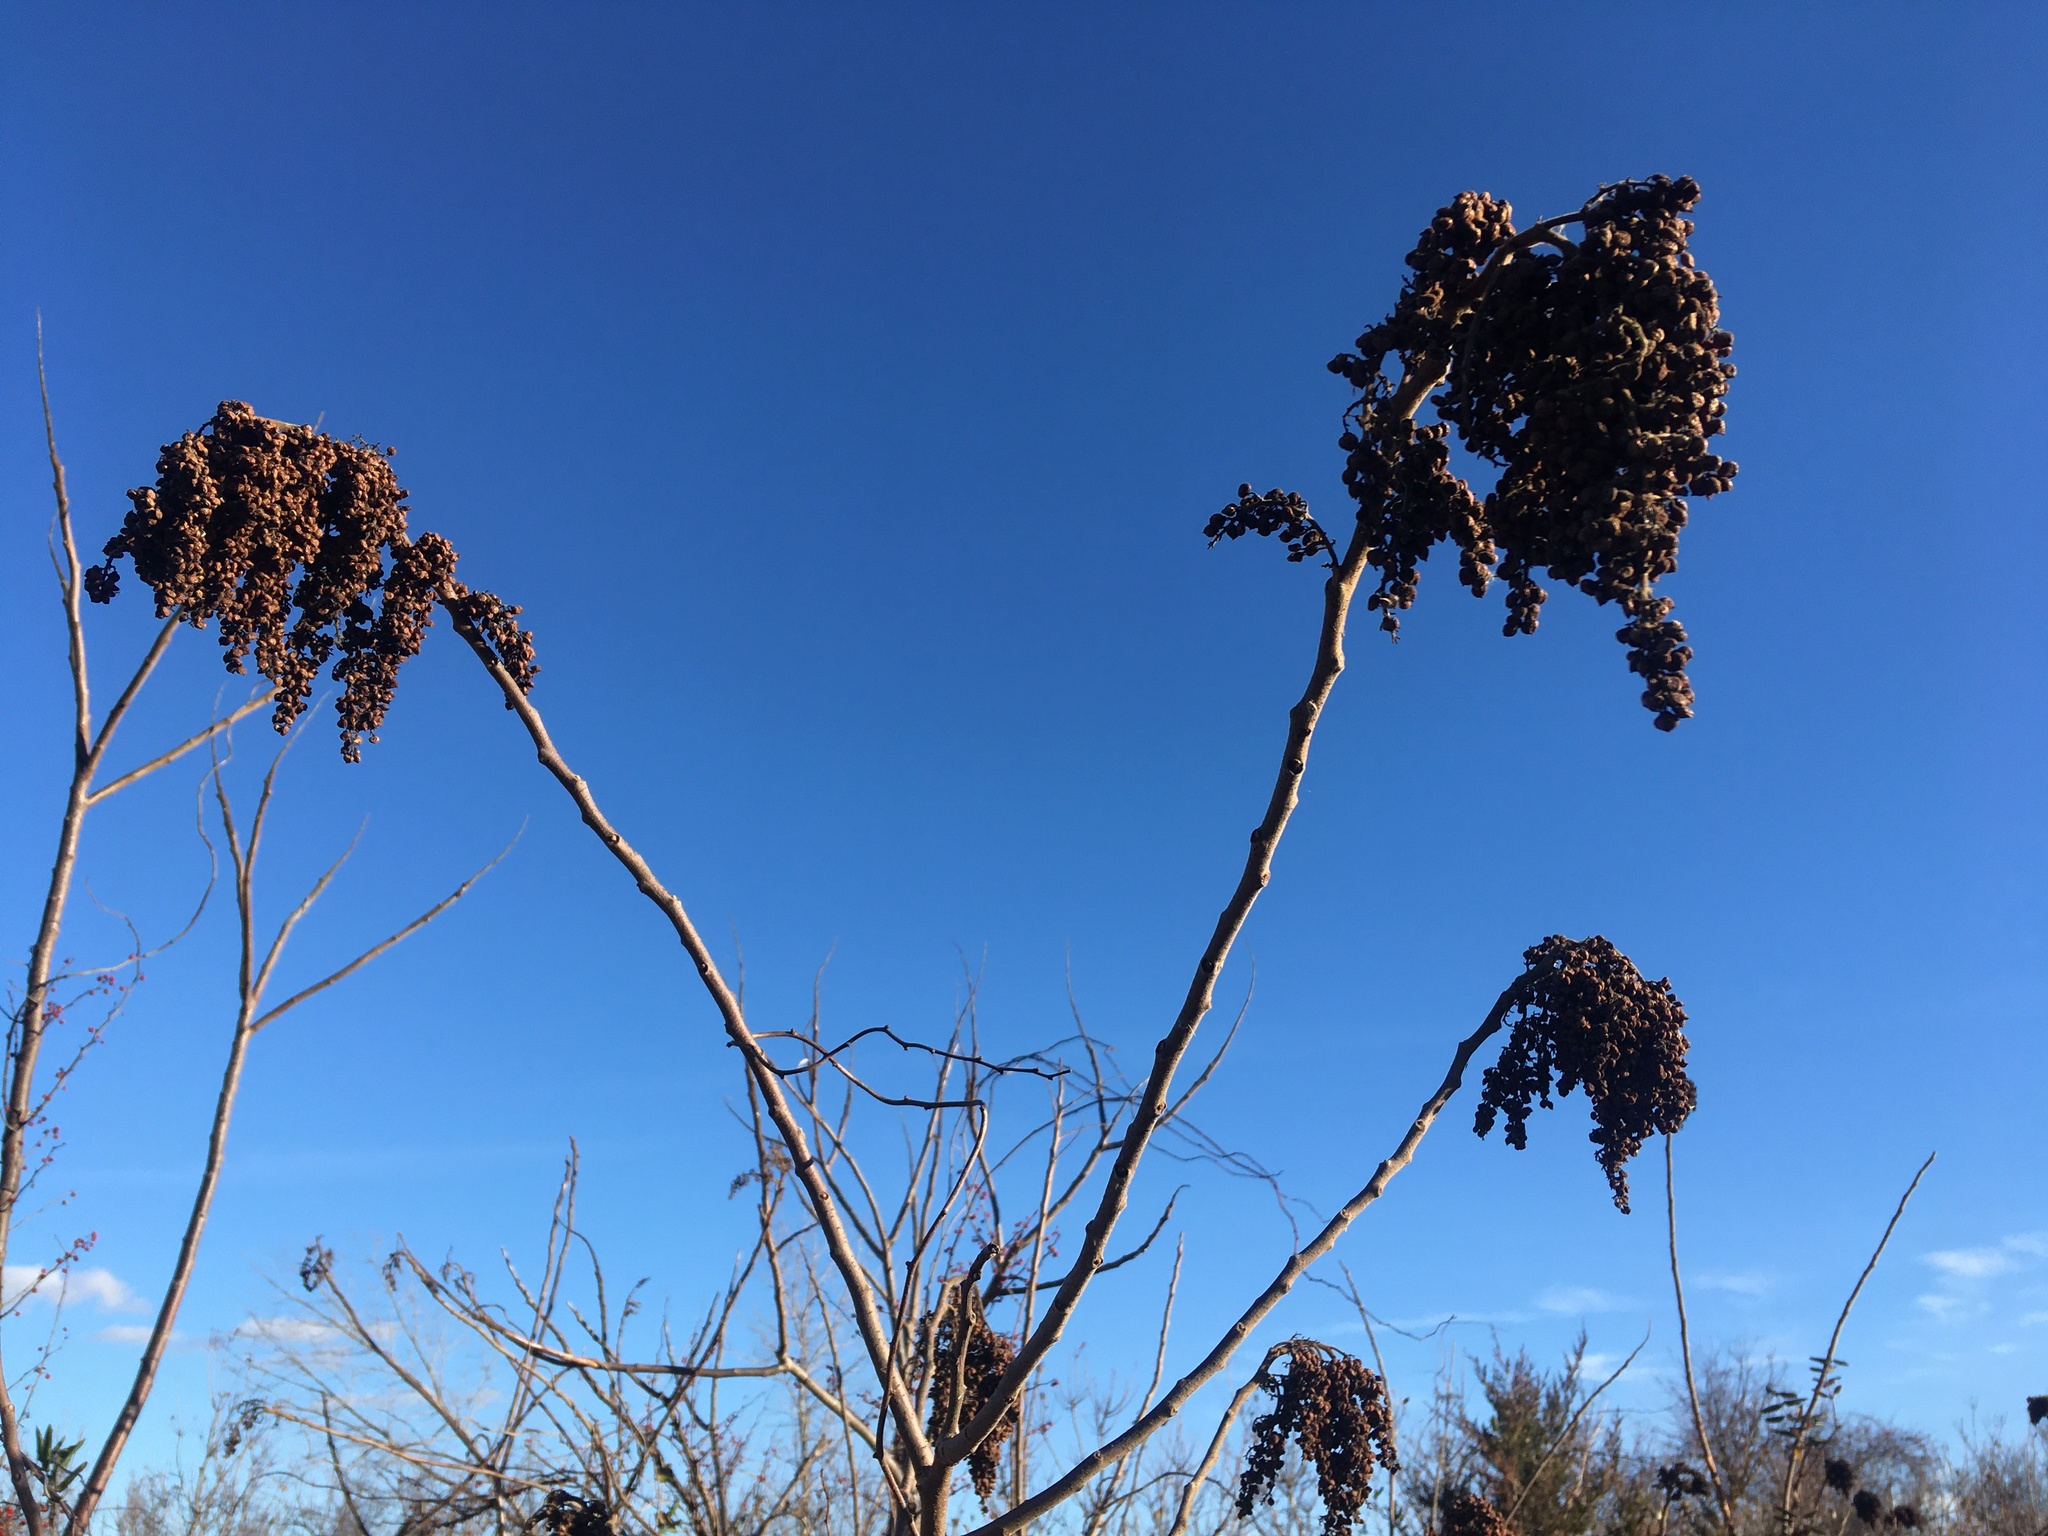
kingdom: Plantae
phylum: Tracheophyta
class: Magnoliopsida
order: Sapindales
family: Anacardiaceae
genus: Rhus
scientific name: Rhus copallina
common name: Shining sumac
